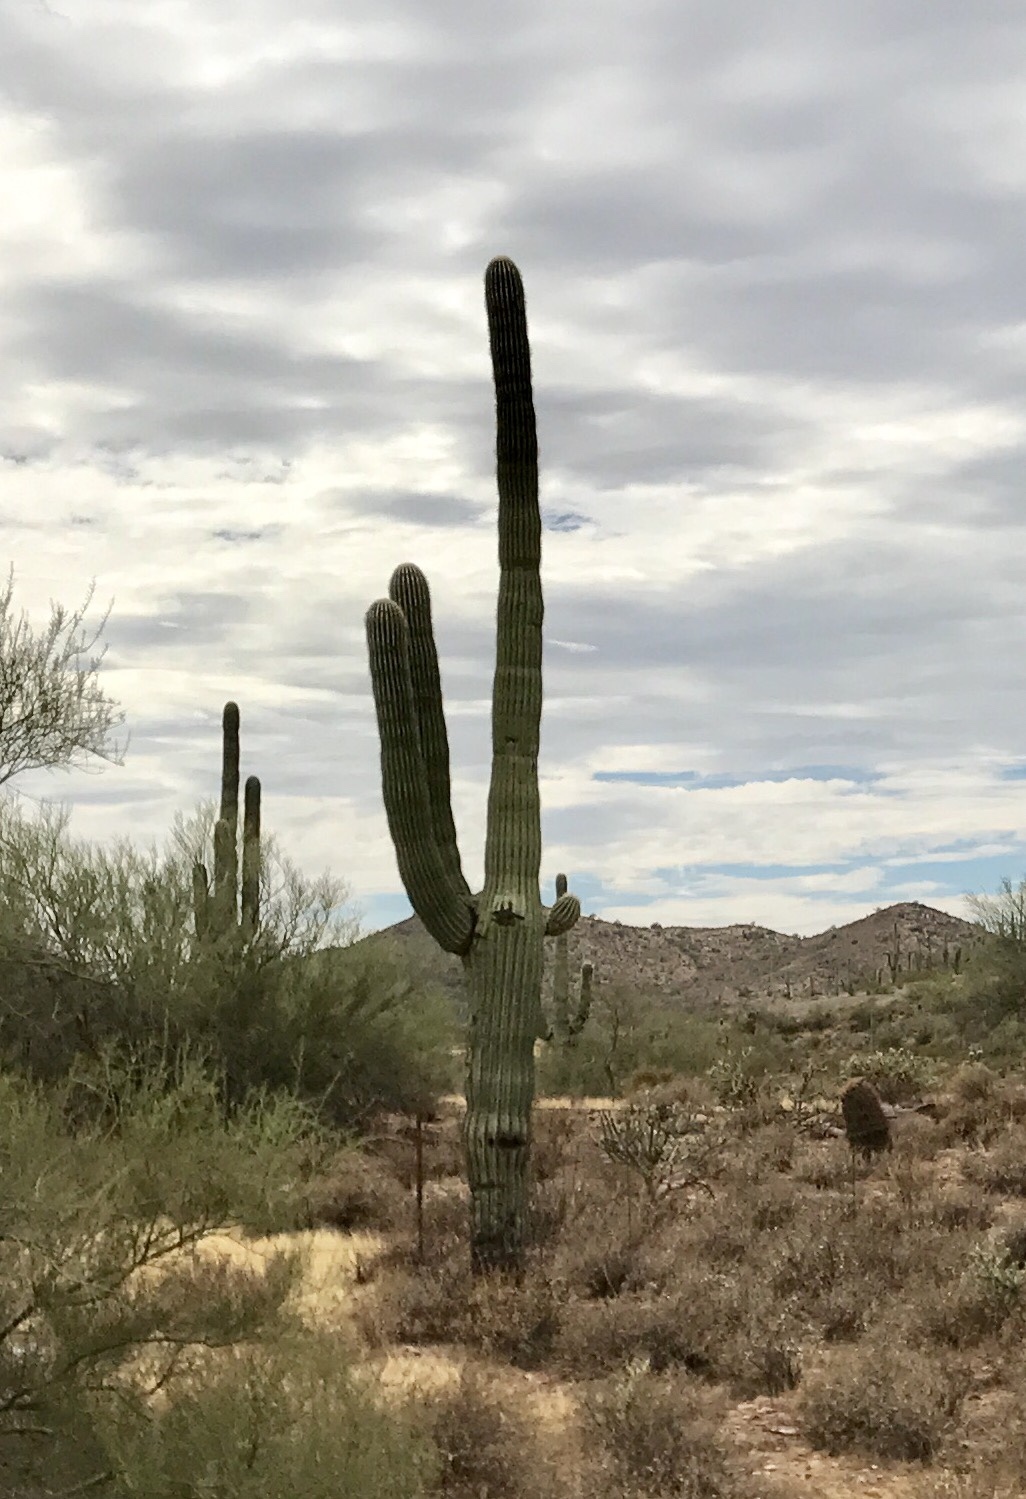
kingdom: Plantae
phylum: Tracheophyta
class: Magnoliopsida
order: Caryophyllales
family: Cactaceae
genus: Carnegiea
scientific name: Carnegiea gigantea
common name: Saguaro
